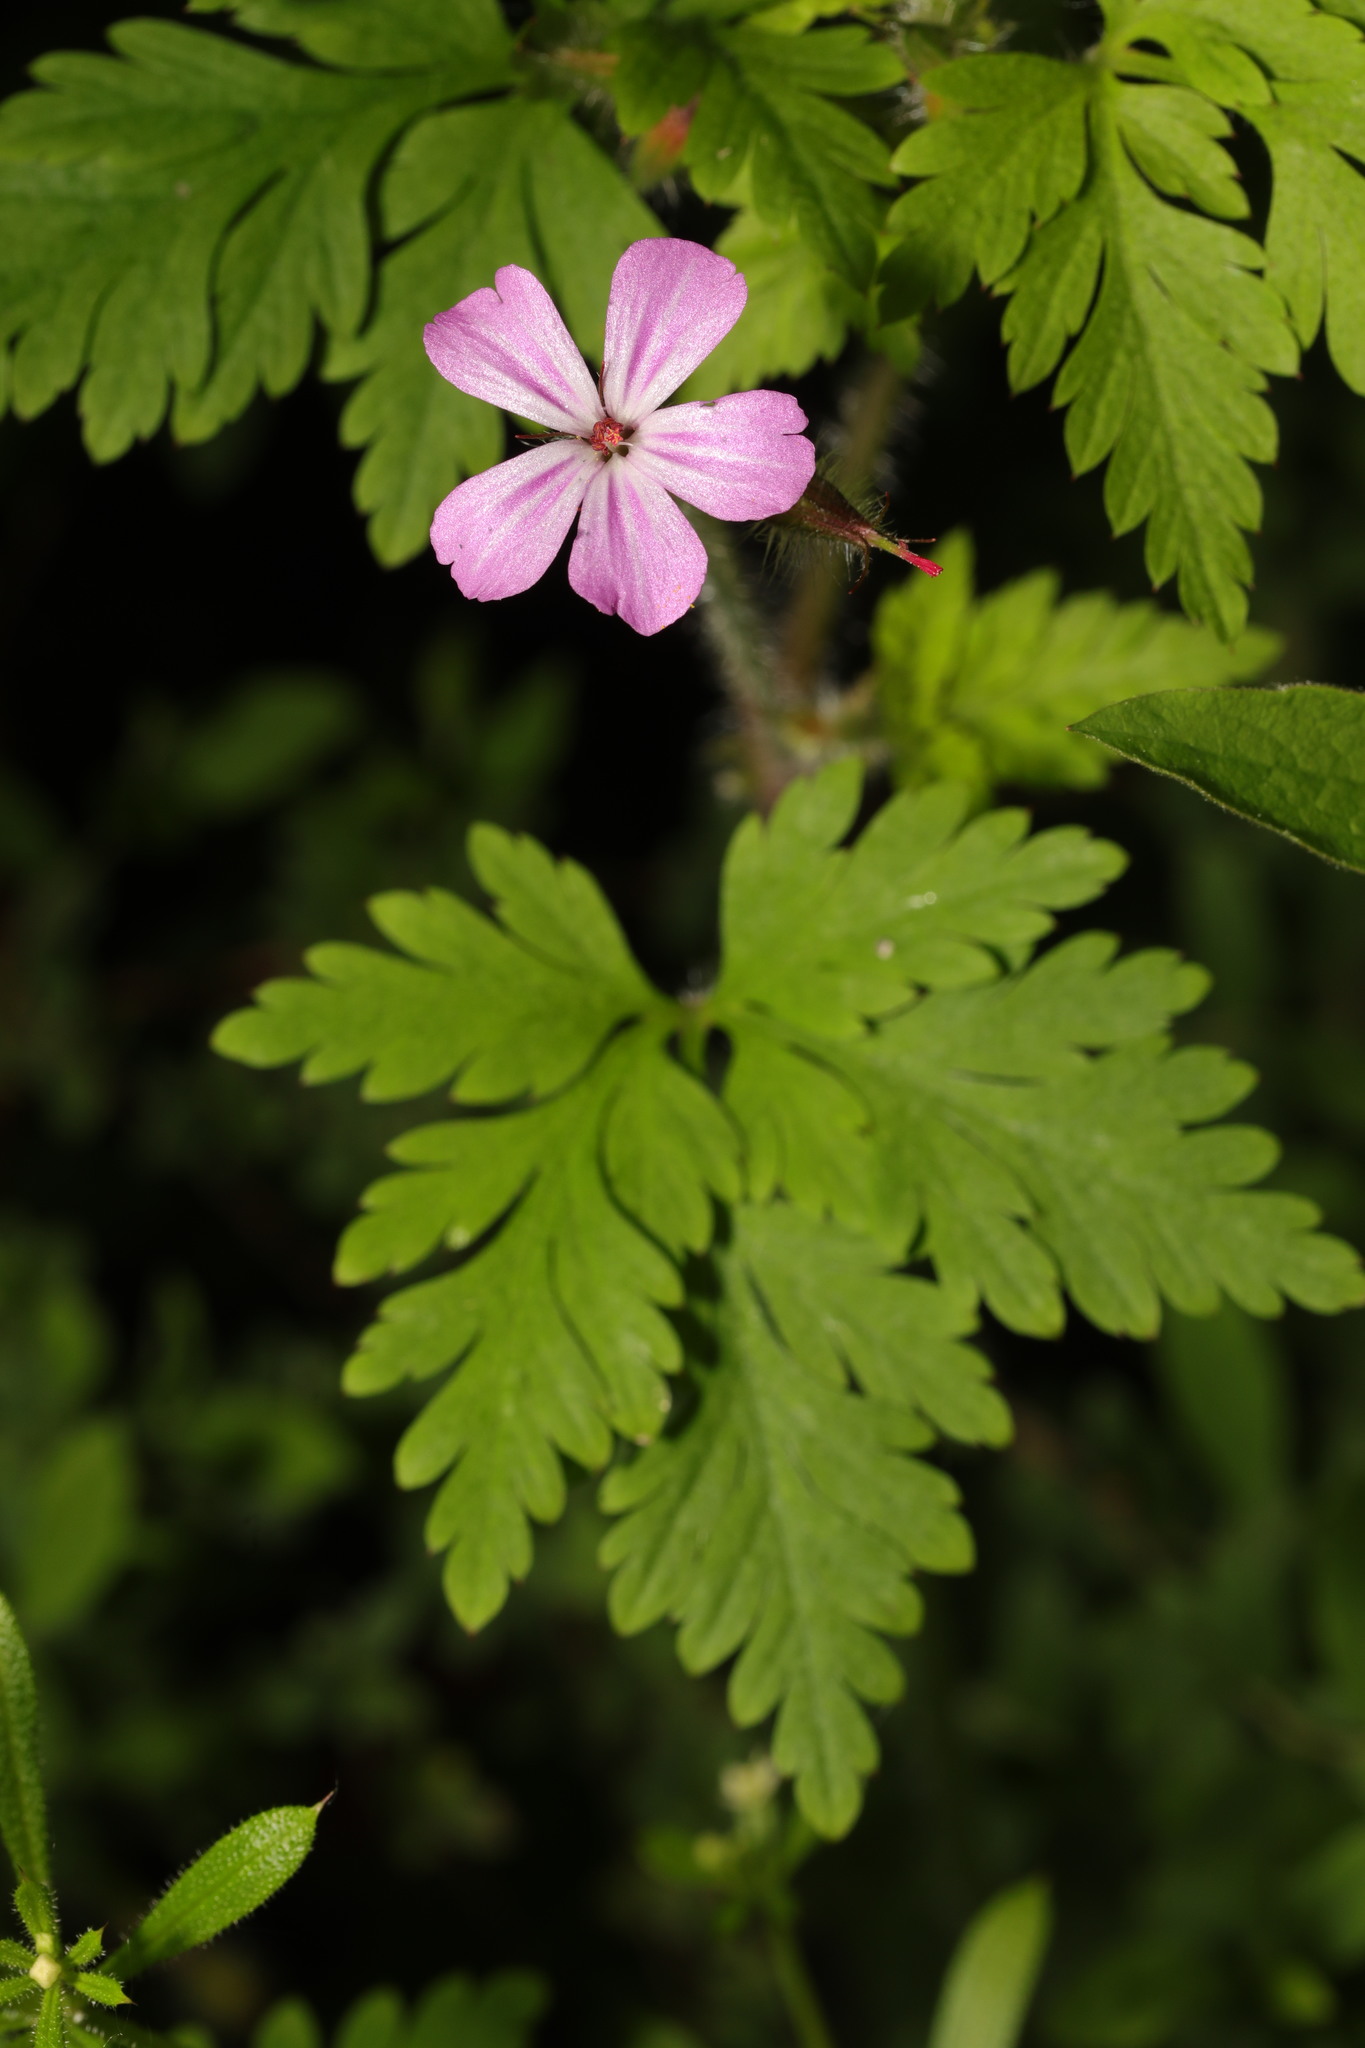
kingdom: Plantae
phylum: Tracheophyta
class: Magnoliopsida
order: Geraniales
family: Geraniaceae
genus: Geranium
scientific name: Geranium robertianum
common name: Herb-robert
